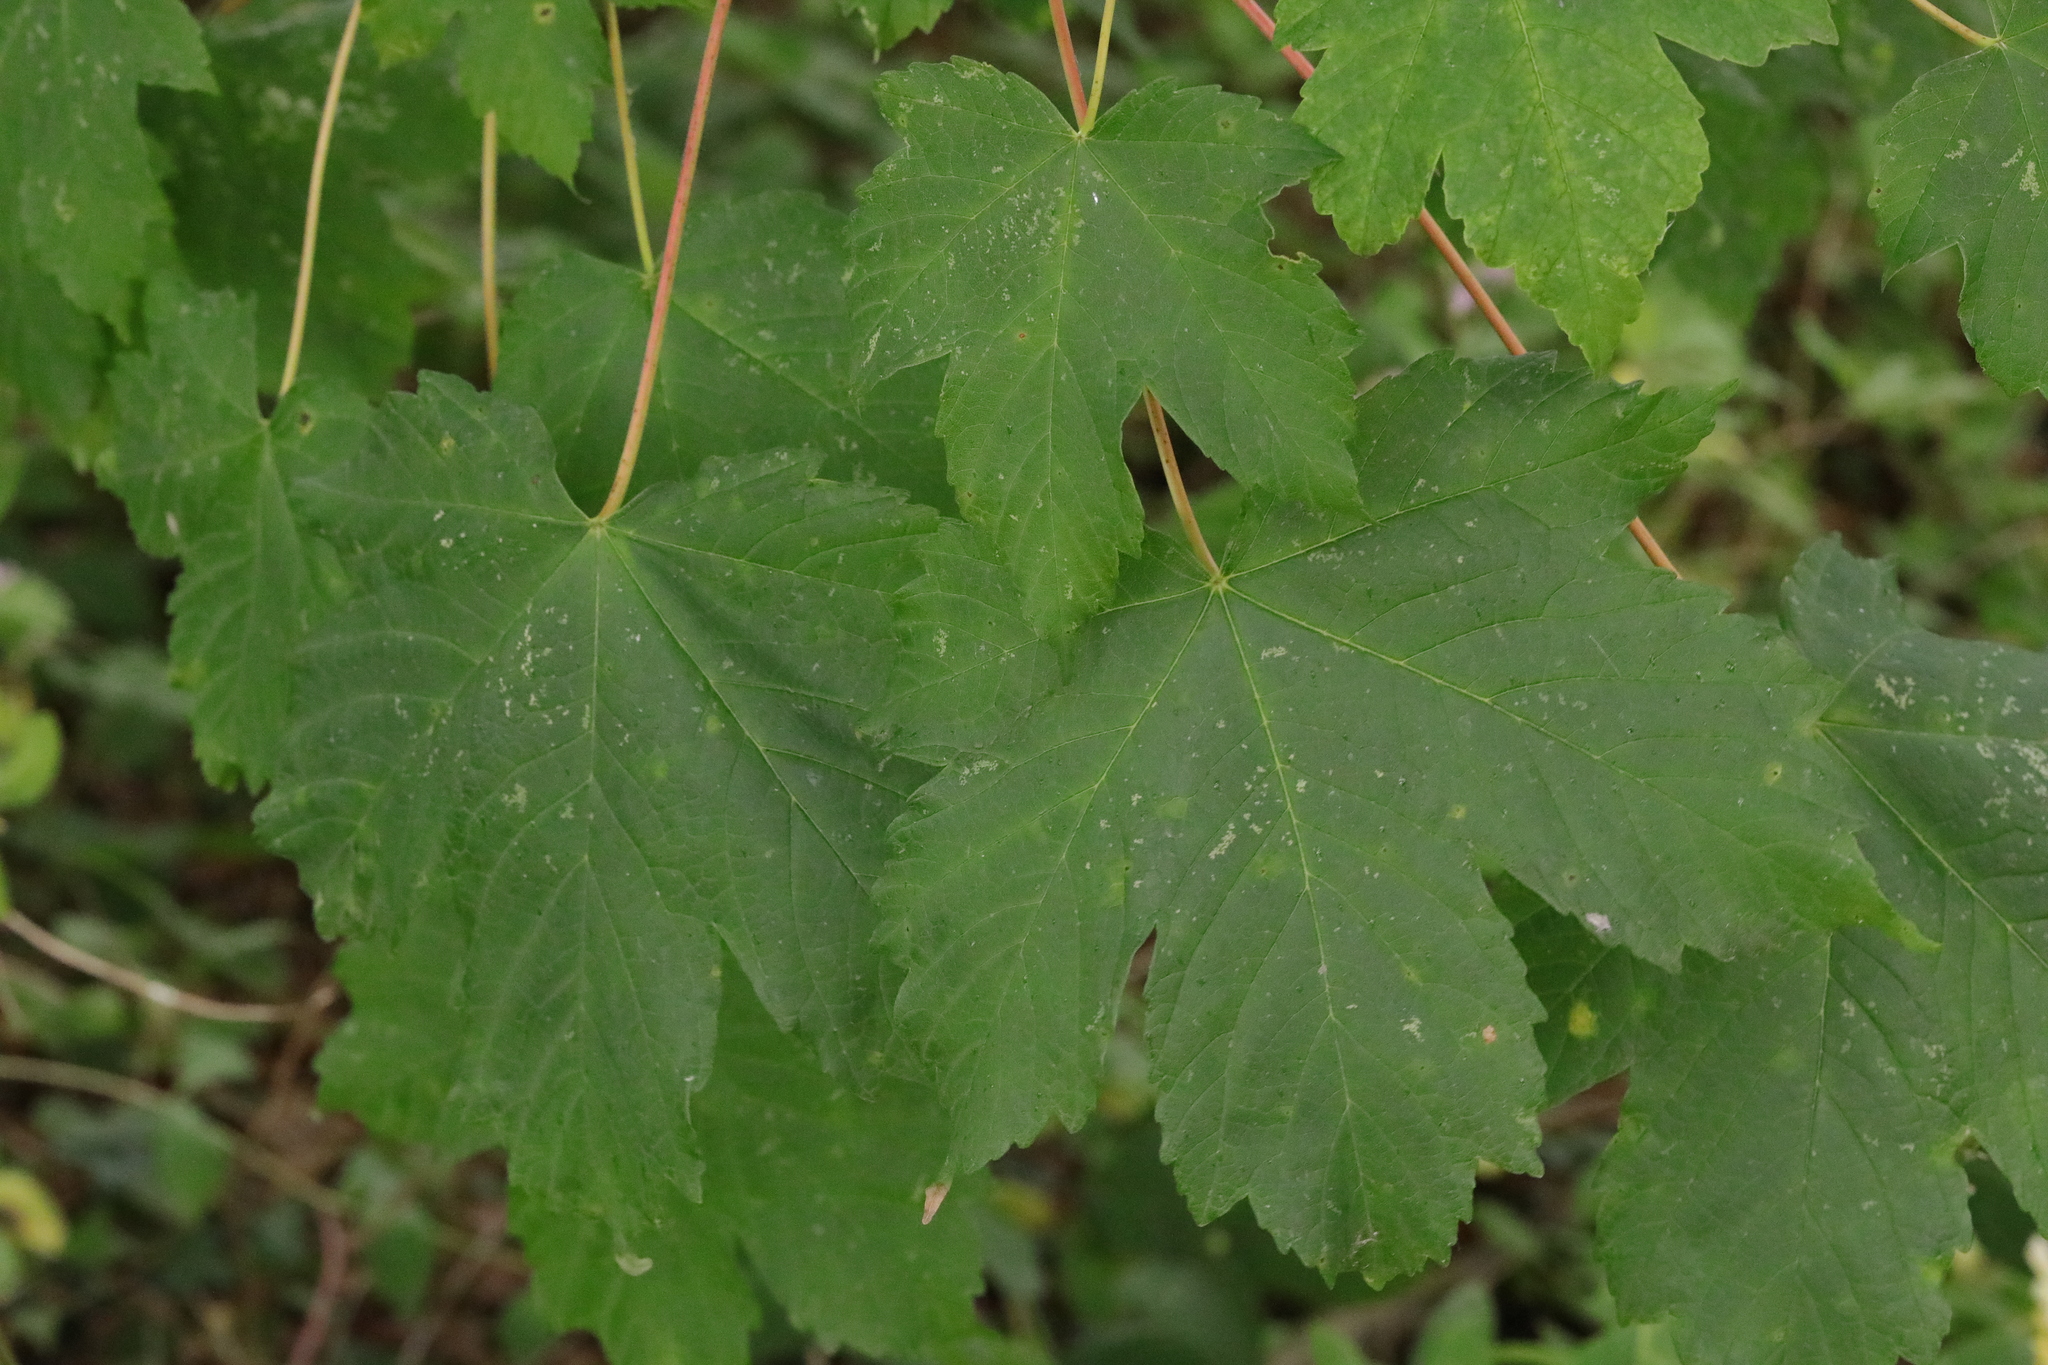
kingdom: Plantae
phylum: Tracheophyta
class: Magnoliopsida
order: Sapindales
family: Sapindaceae
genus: Acer
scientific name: Acer pseudoplatanus
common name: Sycamore
